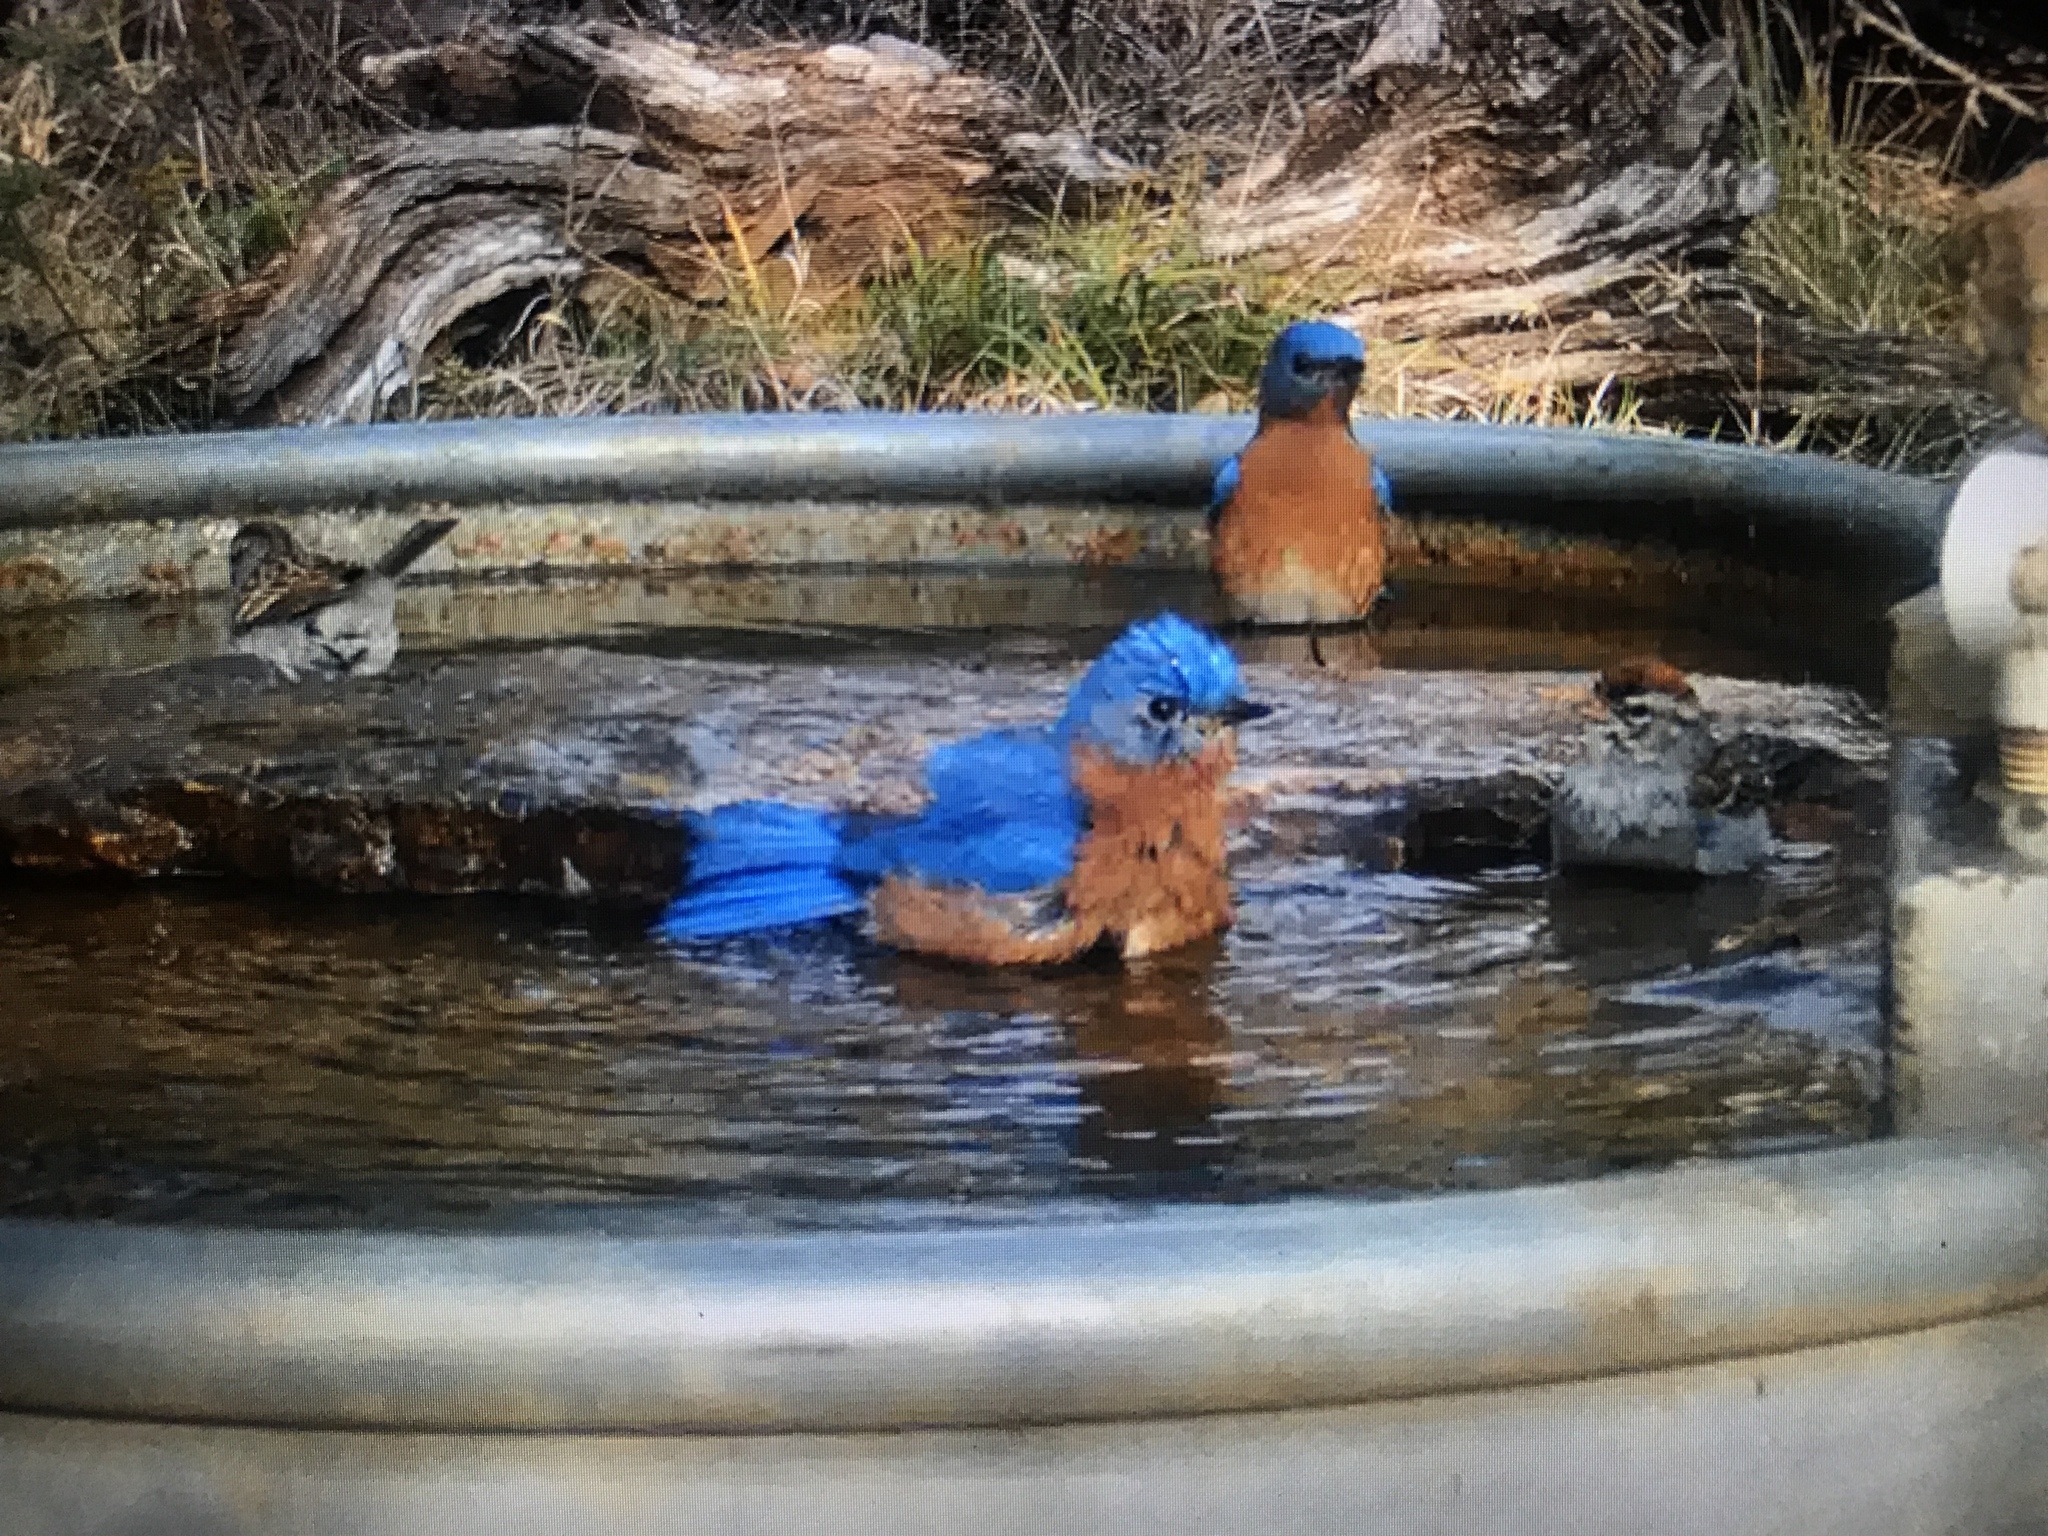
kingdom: Animalia
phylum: Chordata
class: Aves
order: Passeriformes
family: Turdidae
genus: Sialia
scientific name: Sialia sialis
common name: Eastern bluebird
